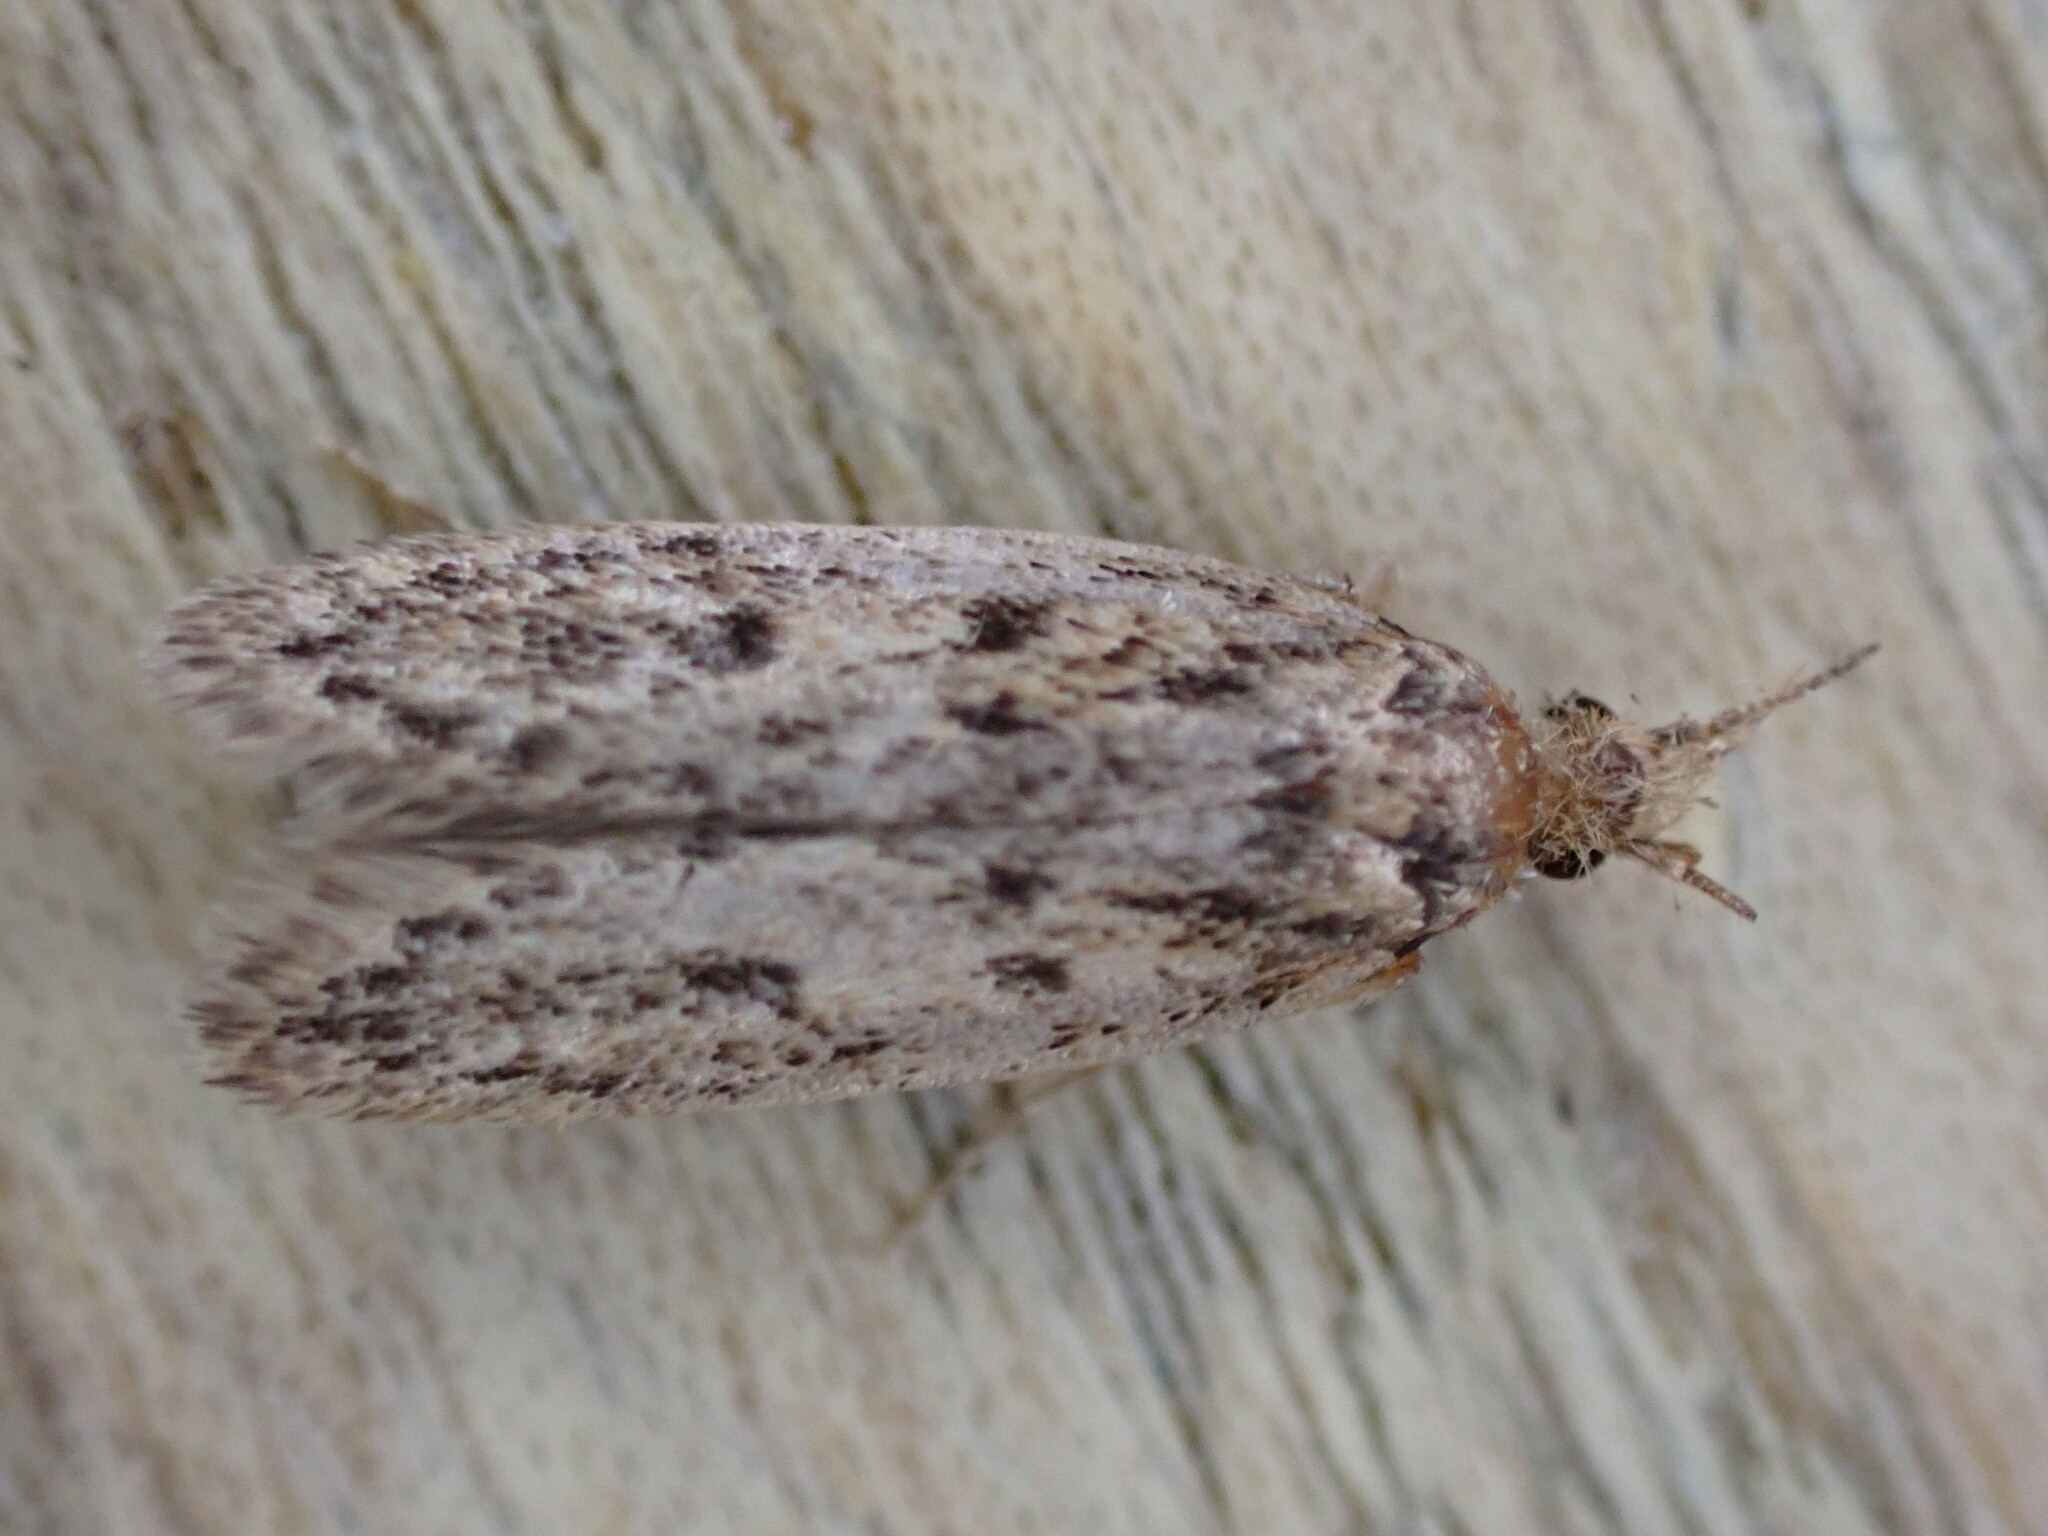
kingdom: Animalia
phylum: Arthropoda
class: Insecta
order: Lepidoptera
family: Oecophoridae
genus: Hofmannophila
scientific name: Hofmannophila pseudospretella
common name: Brown house moth
